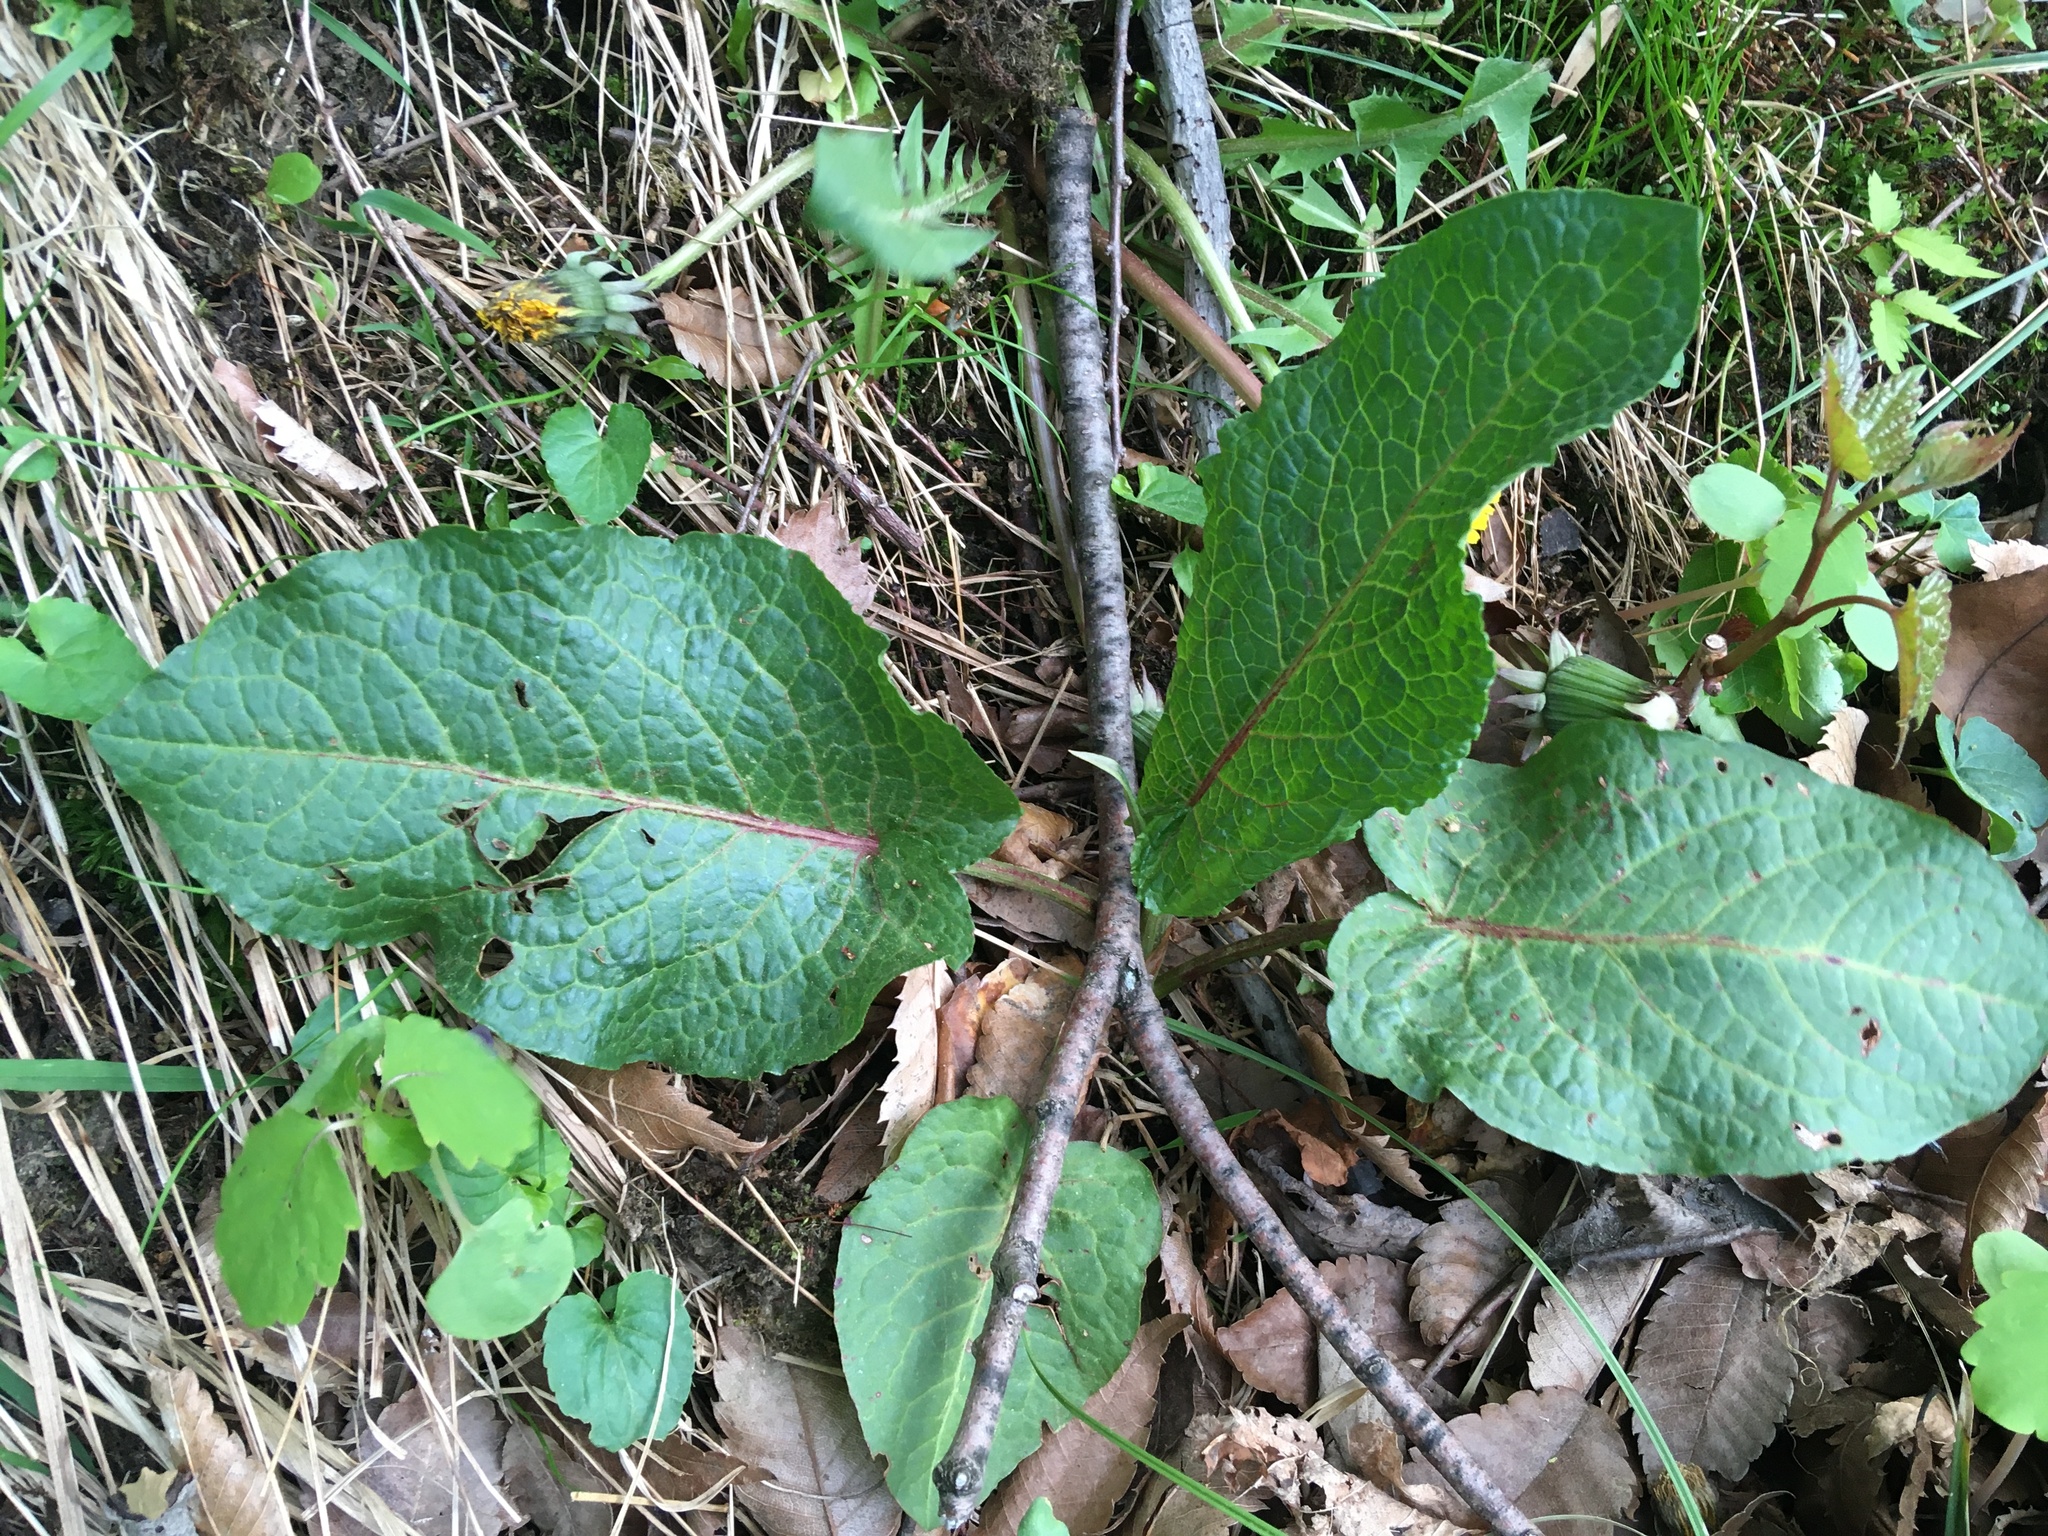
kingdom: Plantae
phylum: Tracheophyta
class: Magnoliopsida
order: Caryophyllales
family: Polygonaceae
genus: Rumex
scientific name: Rumex obtusifolius
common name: Bitter dock
